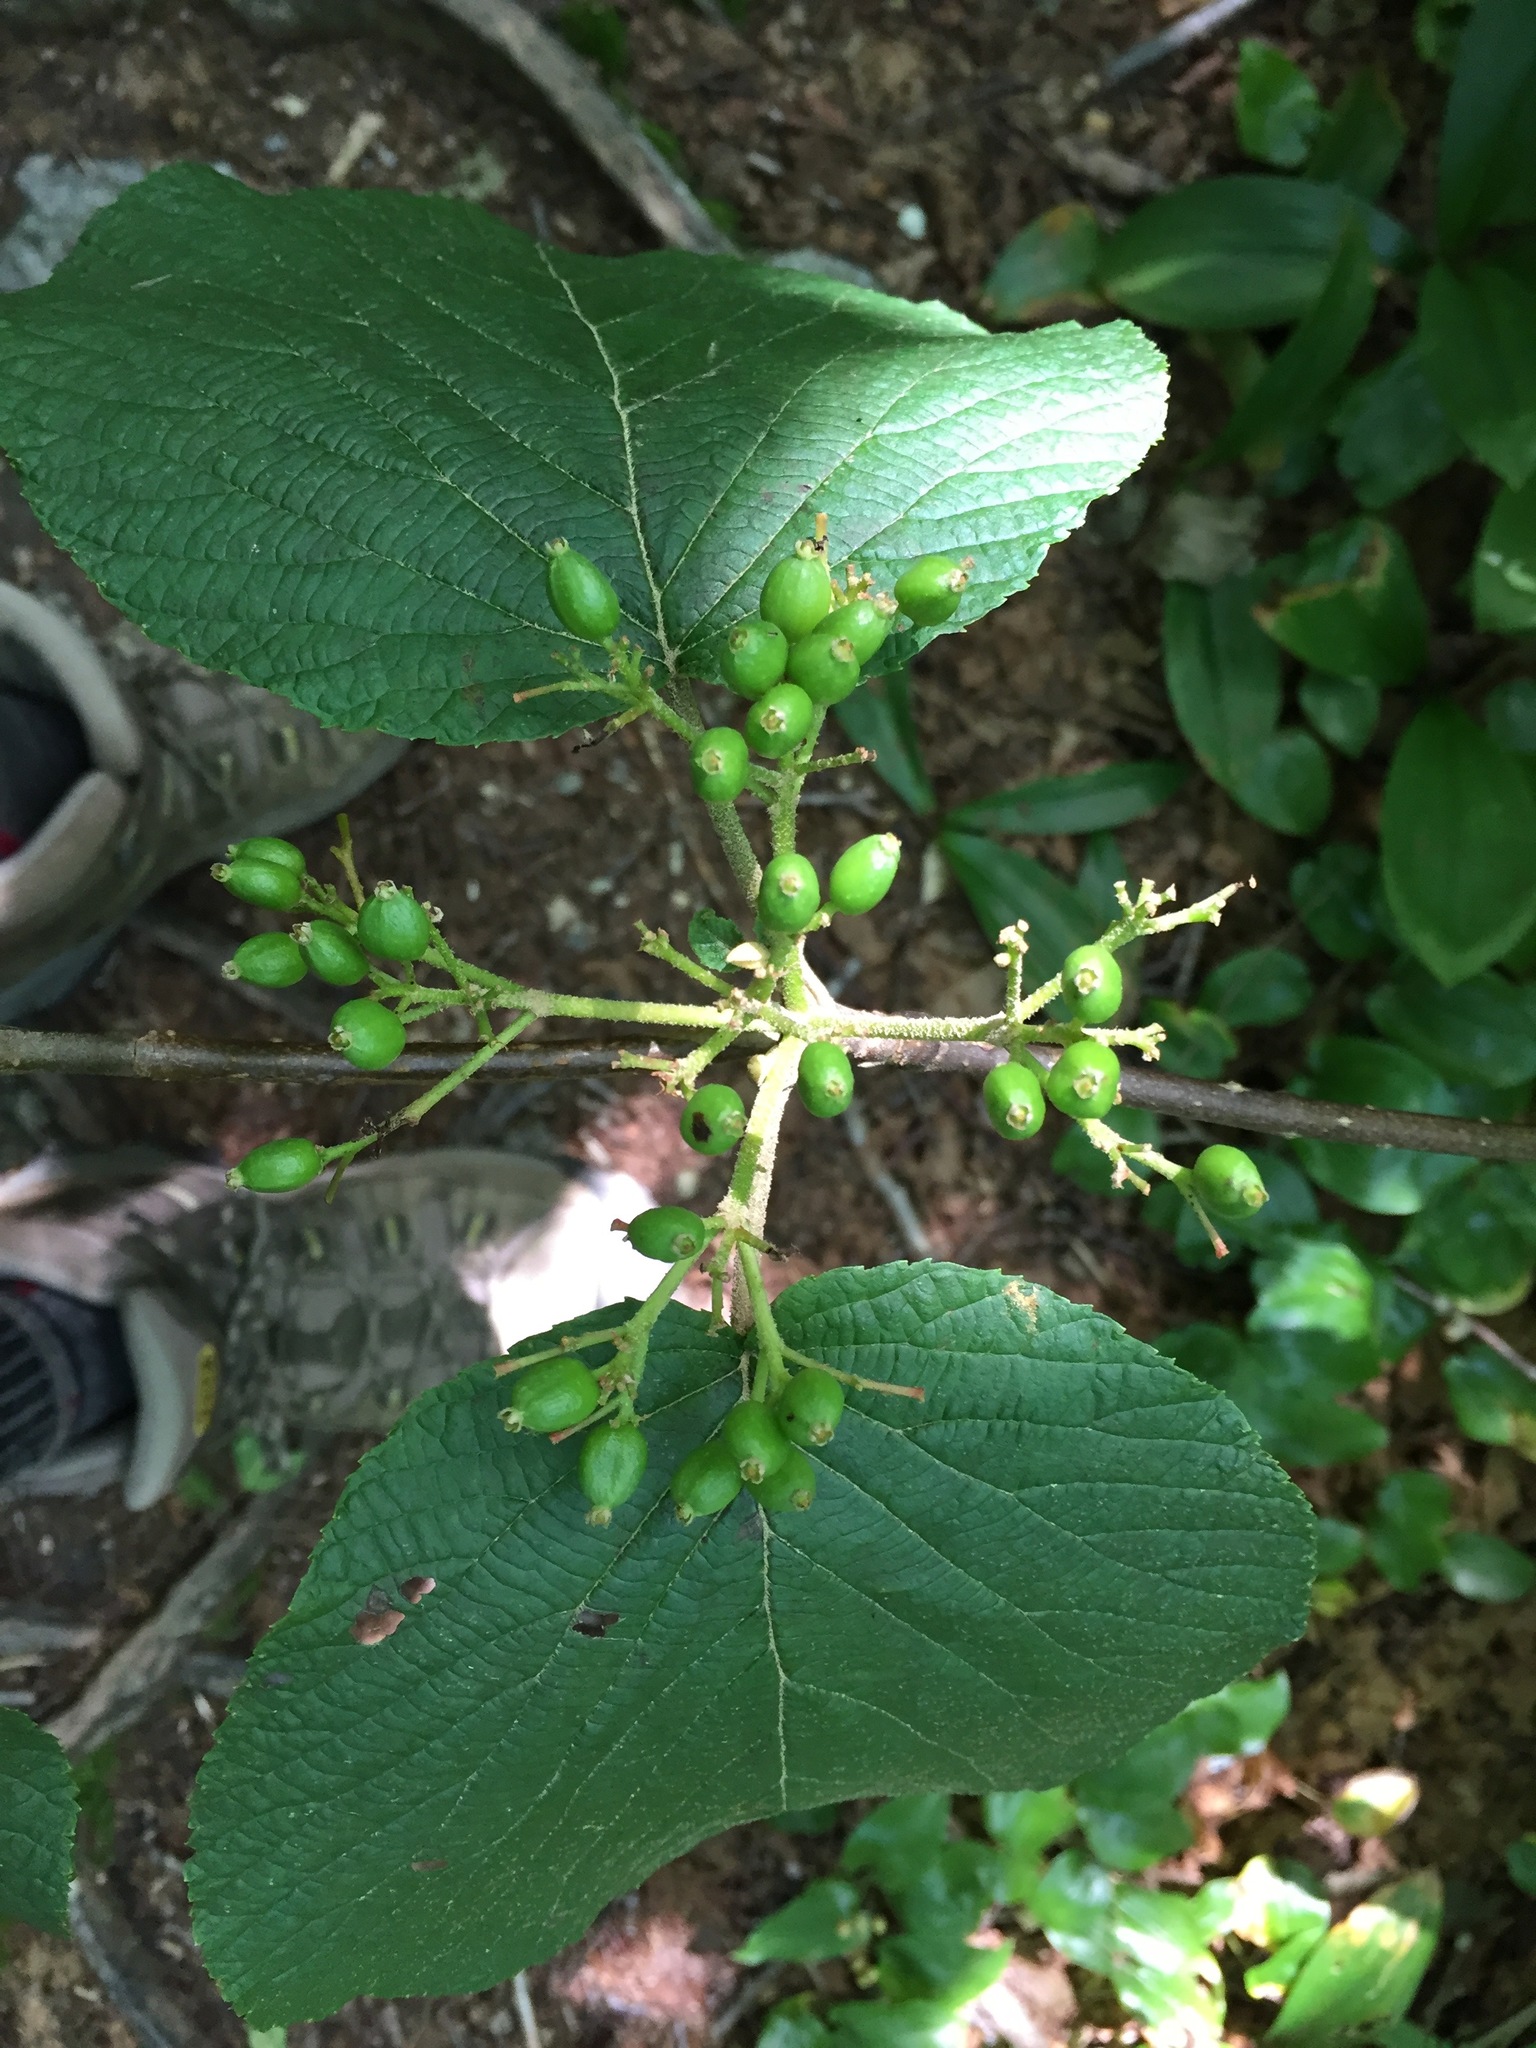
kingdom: Plantae
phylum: Tracheophyta
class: Magnoliopsida
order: Dipsacales
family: Viburnaceae
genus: Viburnum
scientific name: Viburnum lantanoides
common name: Hobblebush
